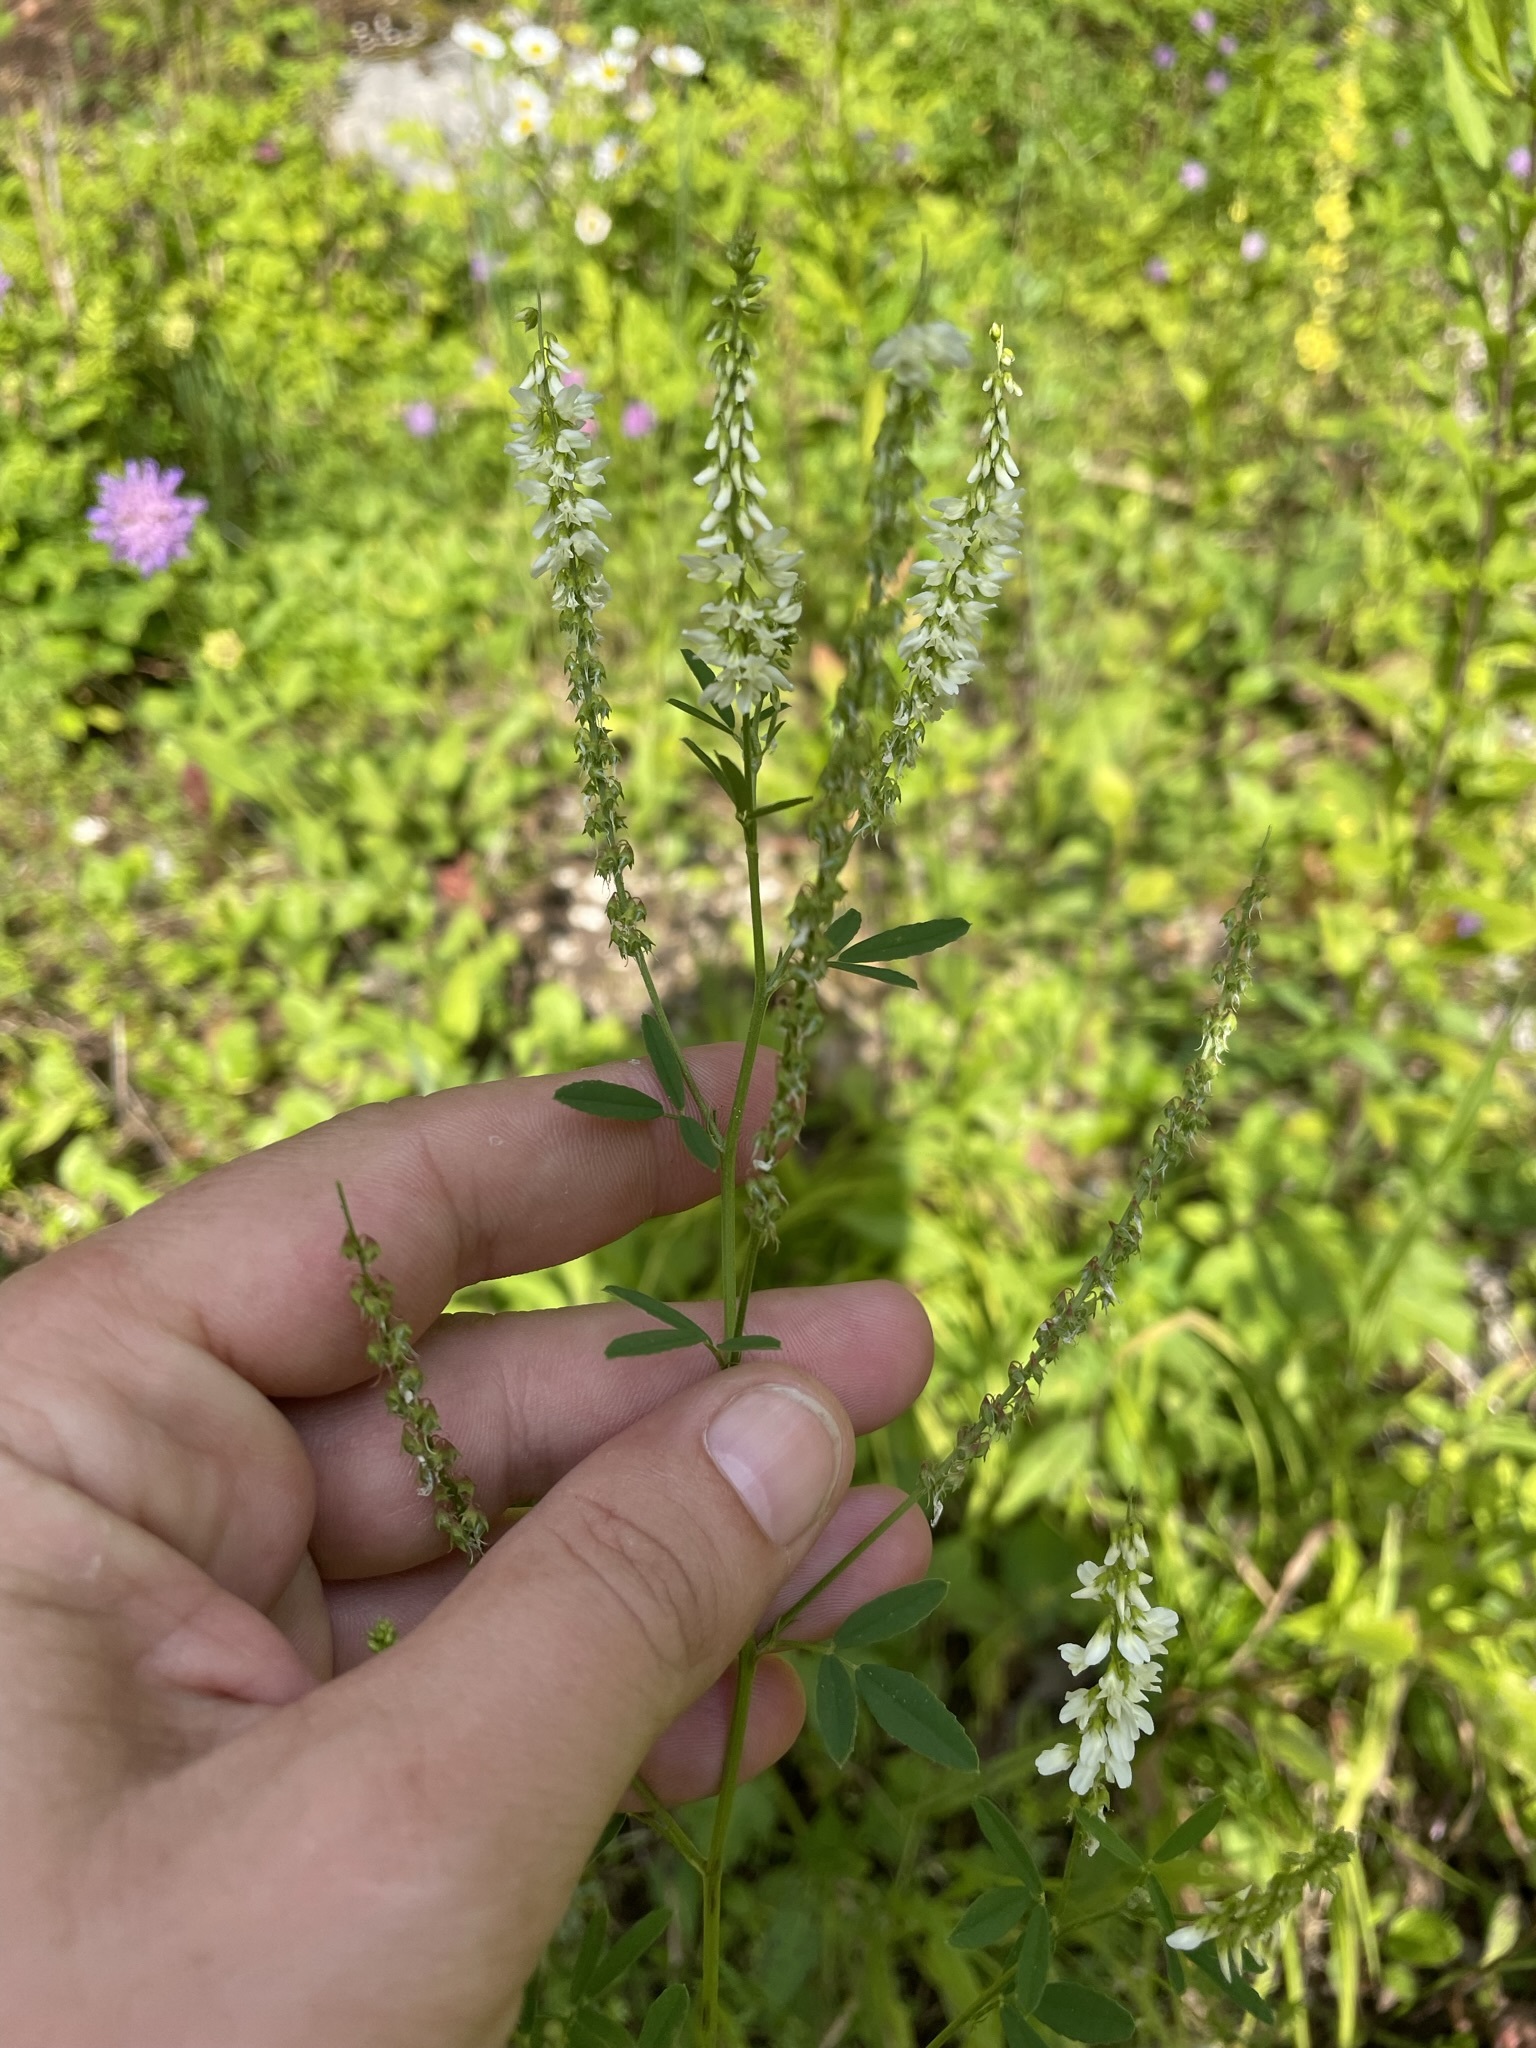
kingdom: Plantae
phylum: Tracheophyta
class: Magnoliopsida
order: Fabales
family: Fabaceae
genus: Melilotus
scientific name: Melilotus albus
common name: White melilot
